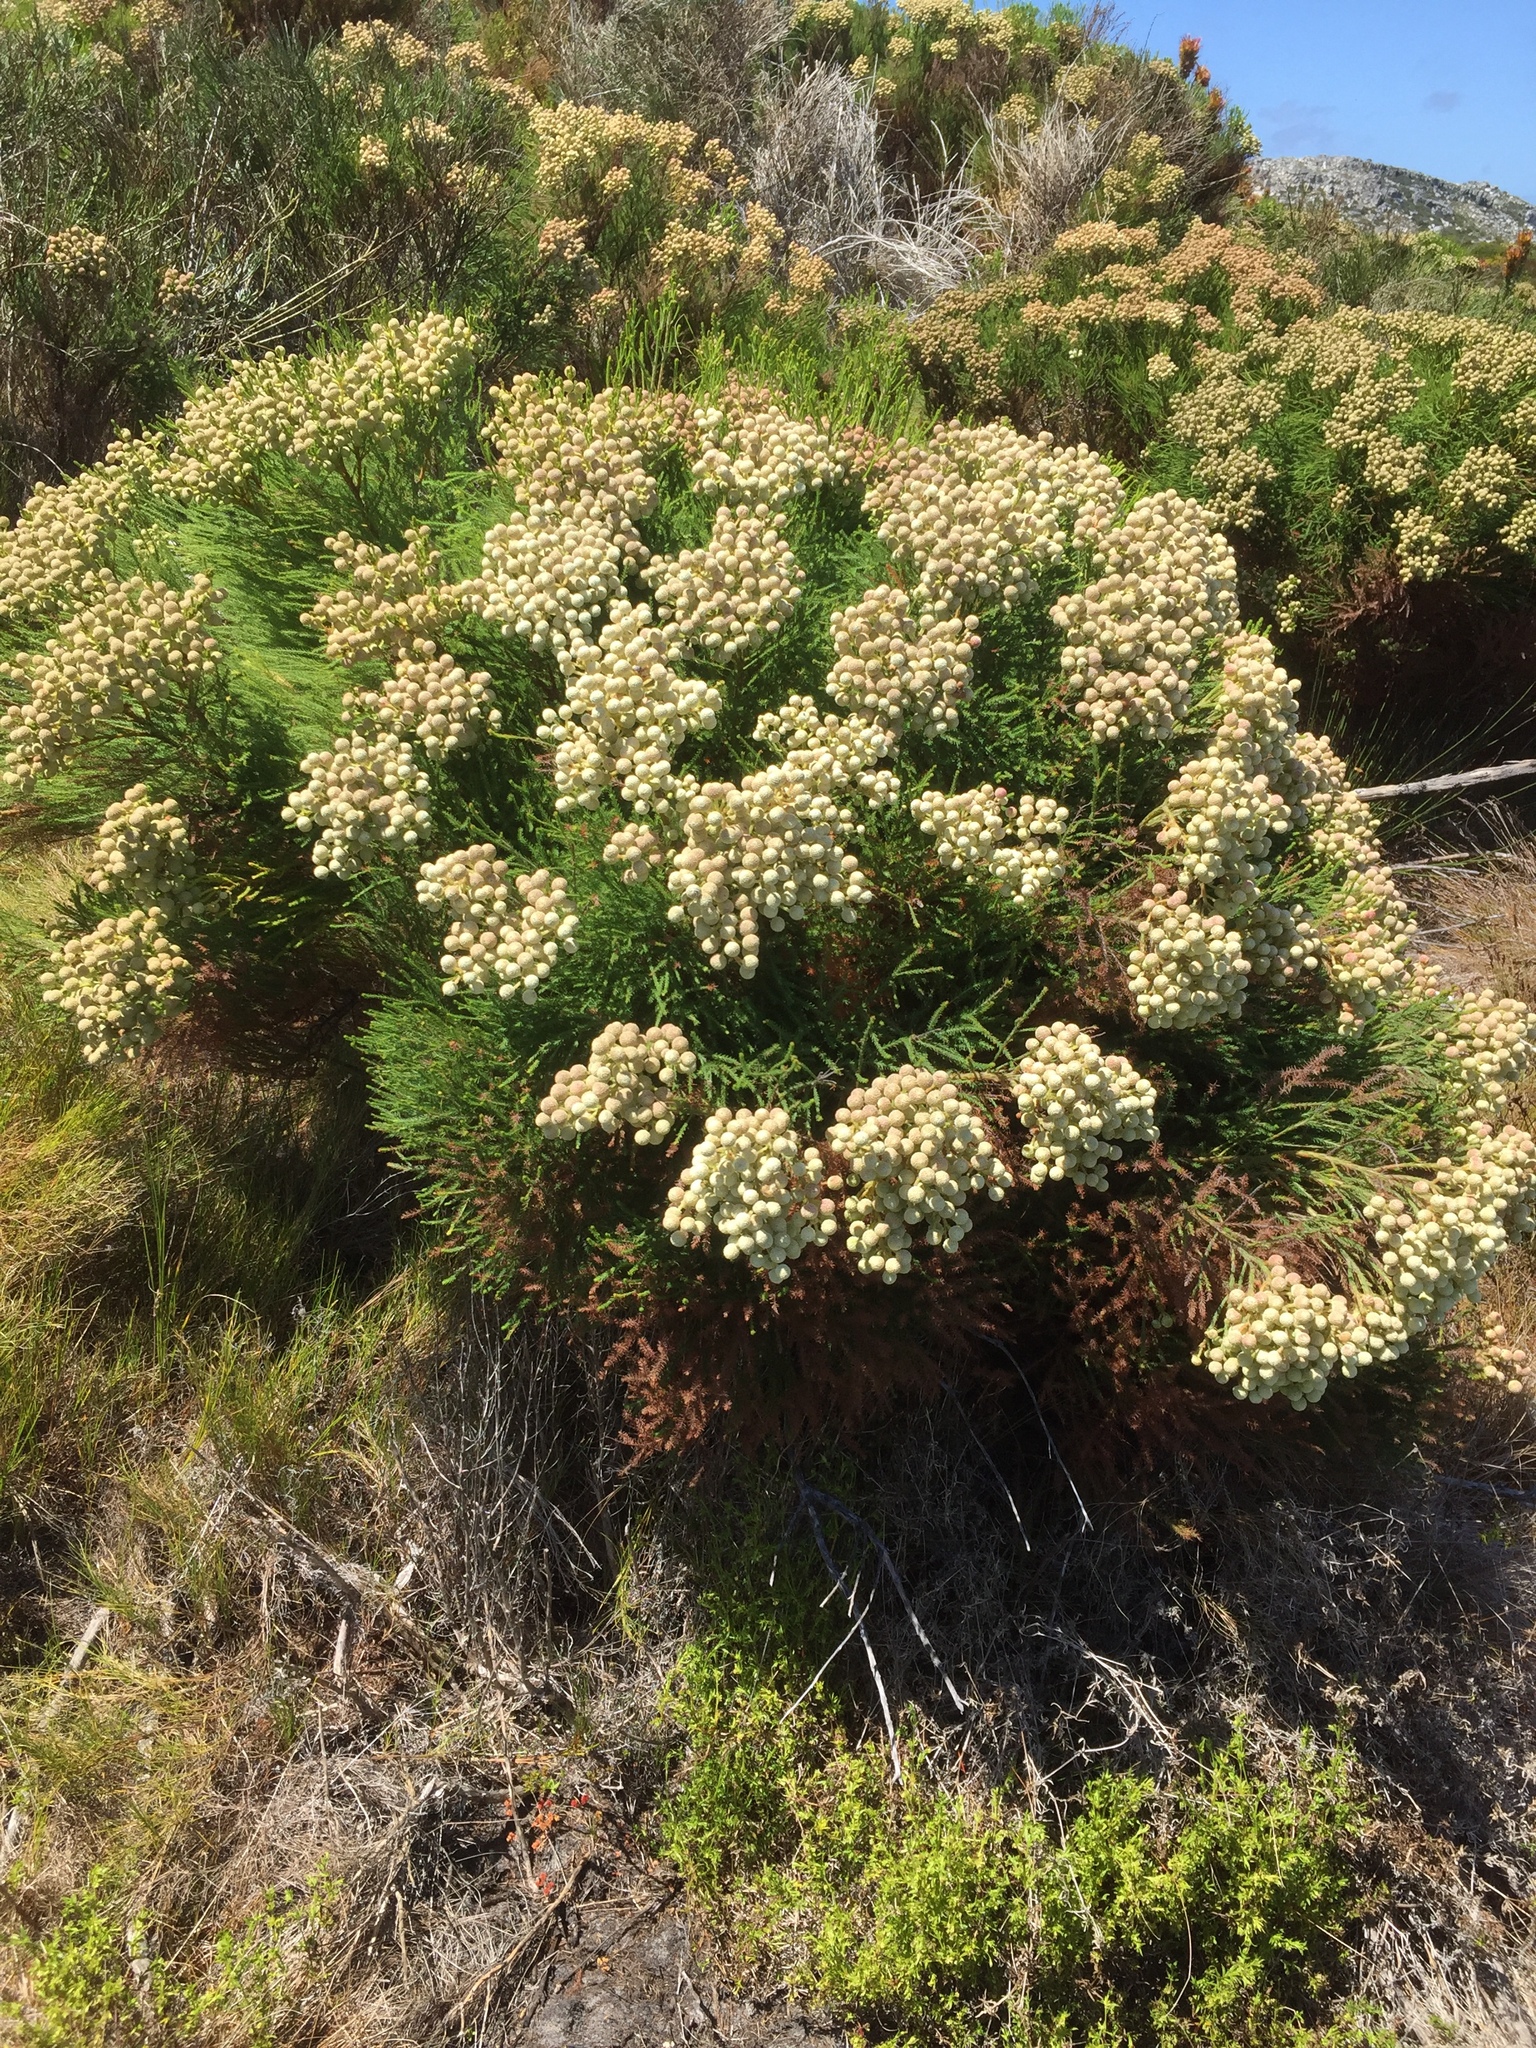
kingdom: Plantae
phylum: Tracheophyta
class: Magnoliopsida
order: Bruniales
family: Bruniaceae
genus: Berzelia
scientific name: Berzelia lanuginosa
